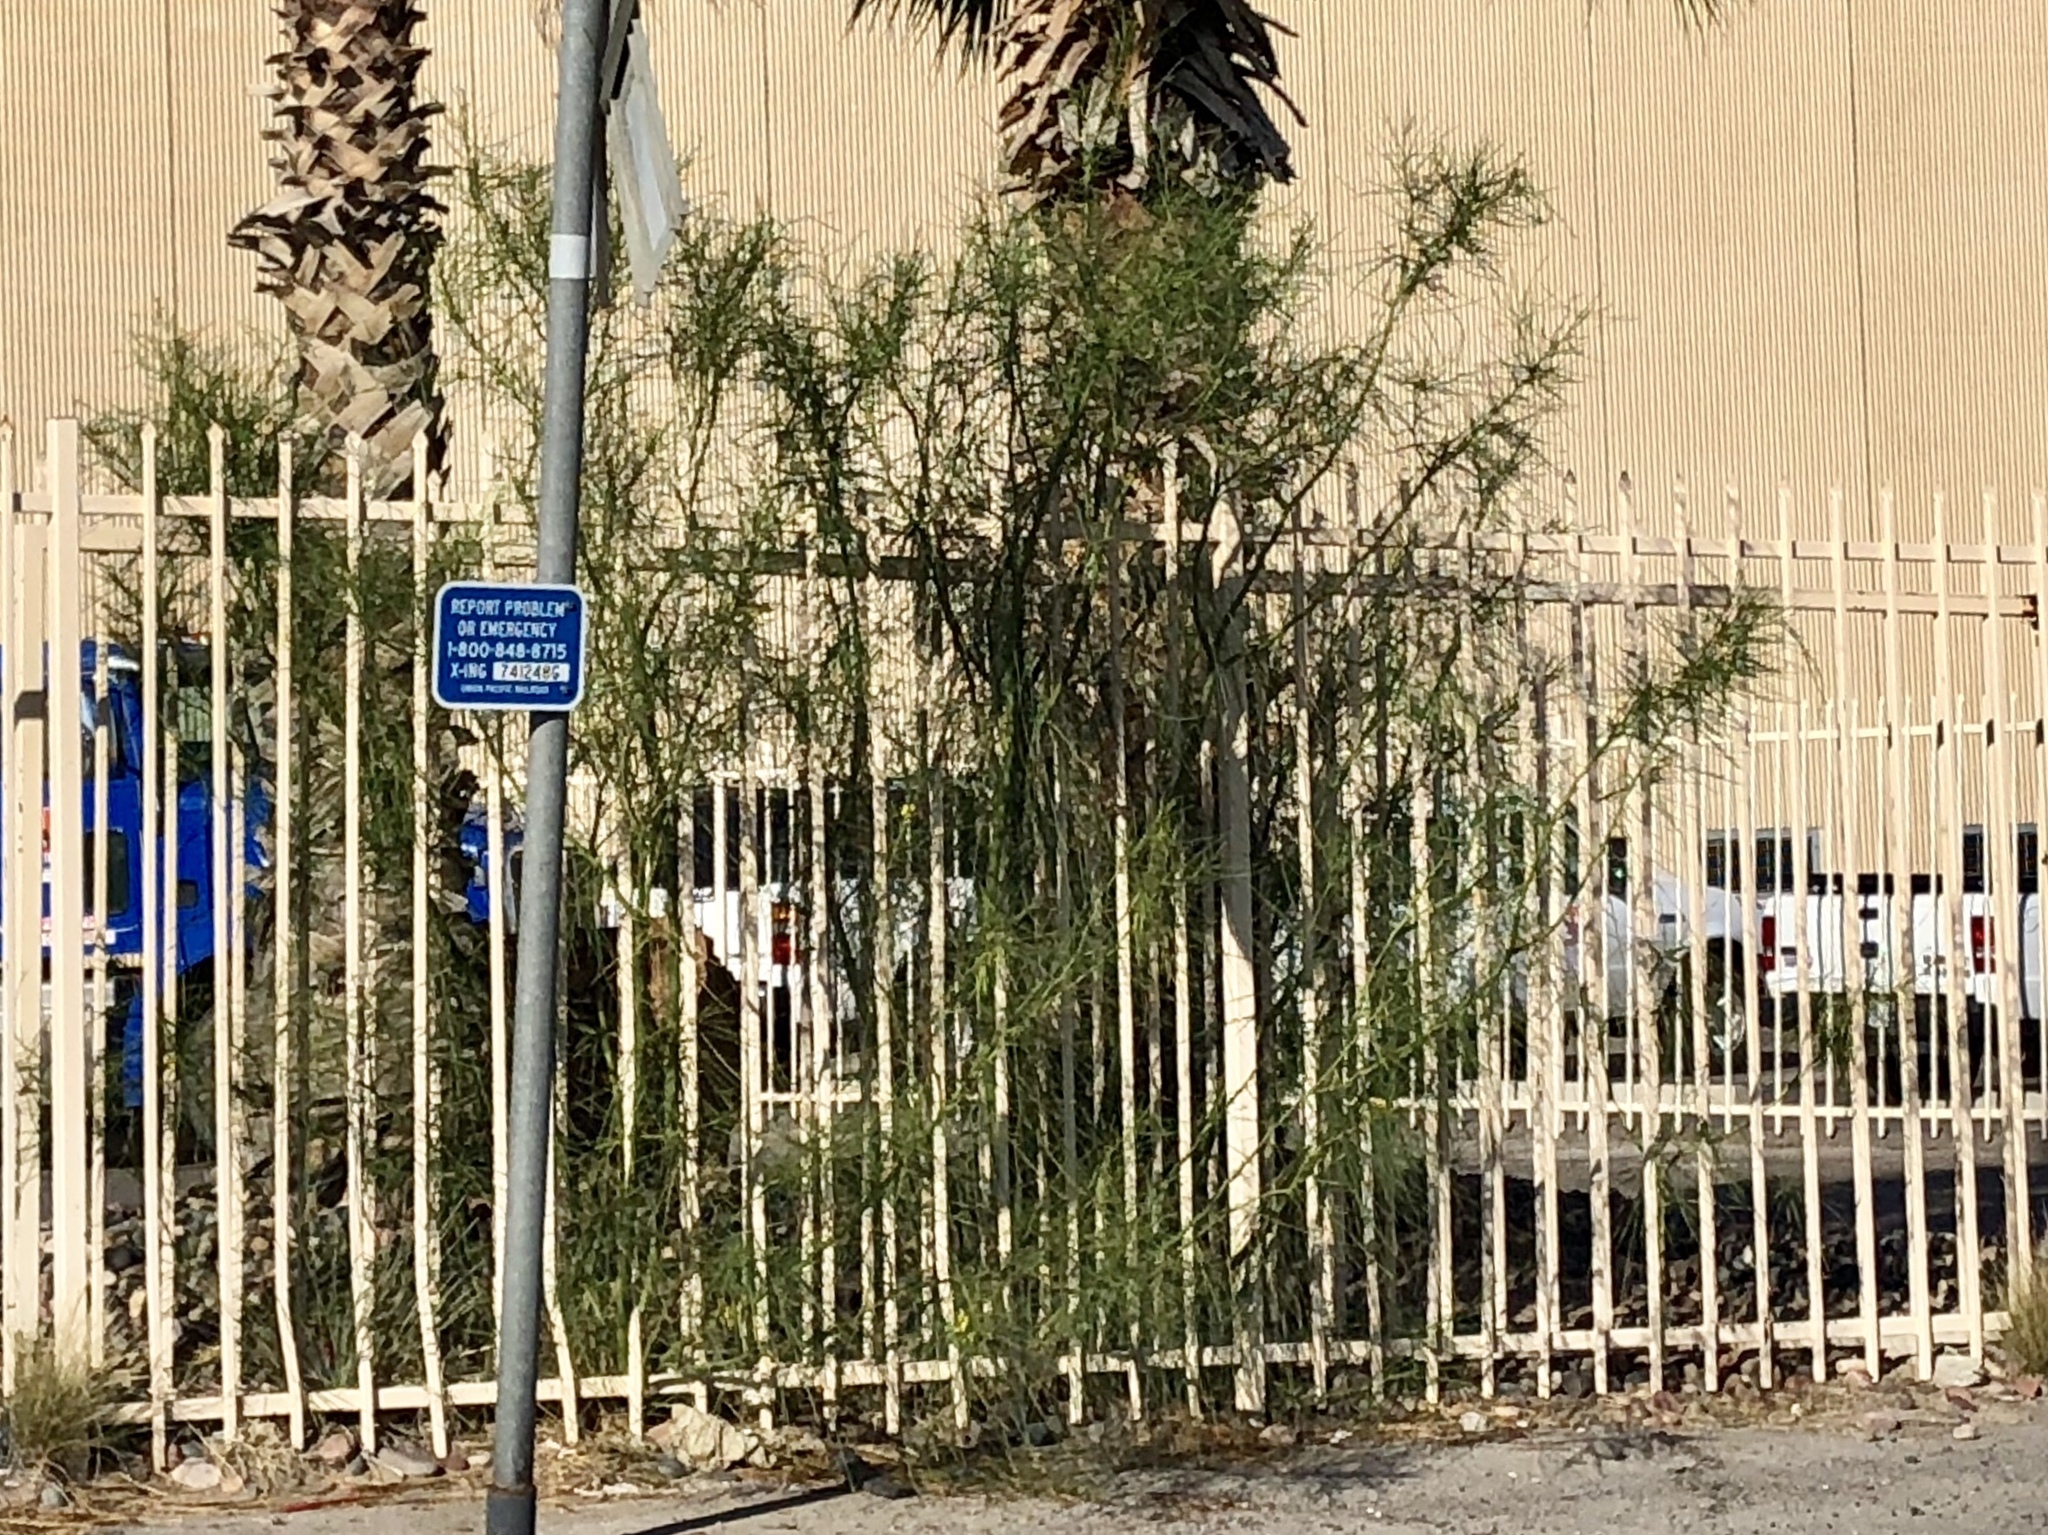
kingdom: Plantae
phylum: Tracheophyta
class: Magnoliopsida
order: Fabales
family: Fabaceae
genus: Parkinsonia
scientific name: Parkinsonia aculeata
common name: Jerusalem thorn
